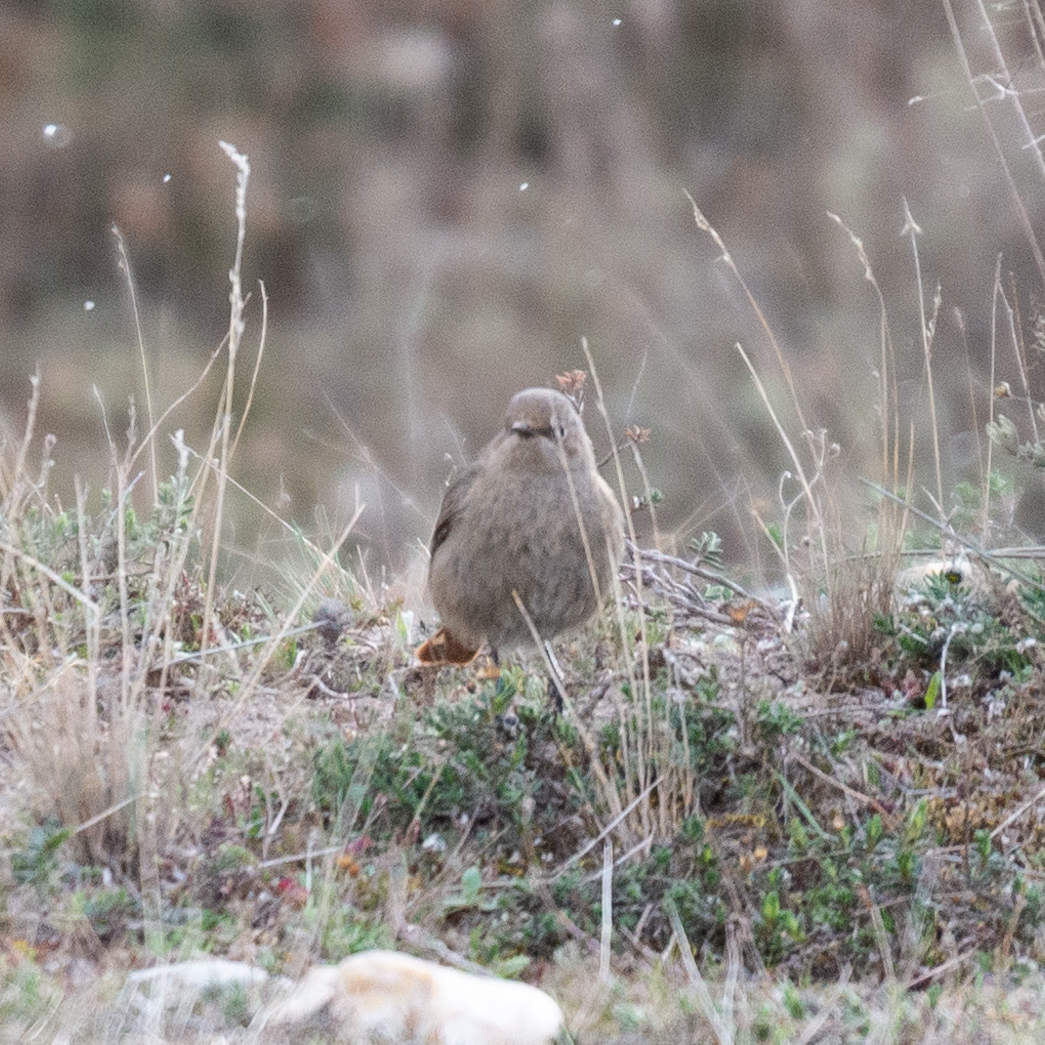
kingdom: Animalia
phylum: Chordata
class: Aves
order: Passeriformes
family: Muscicapidae
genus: Phoenicurus
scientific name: Phoenicurus ochruros
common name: Black redstart
